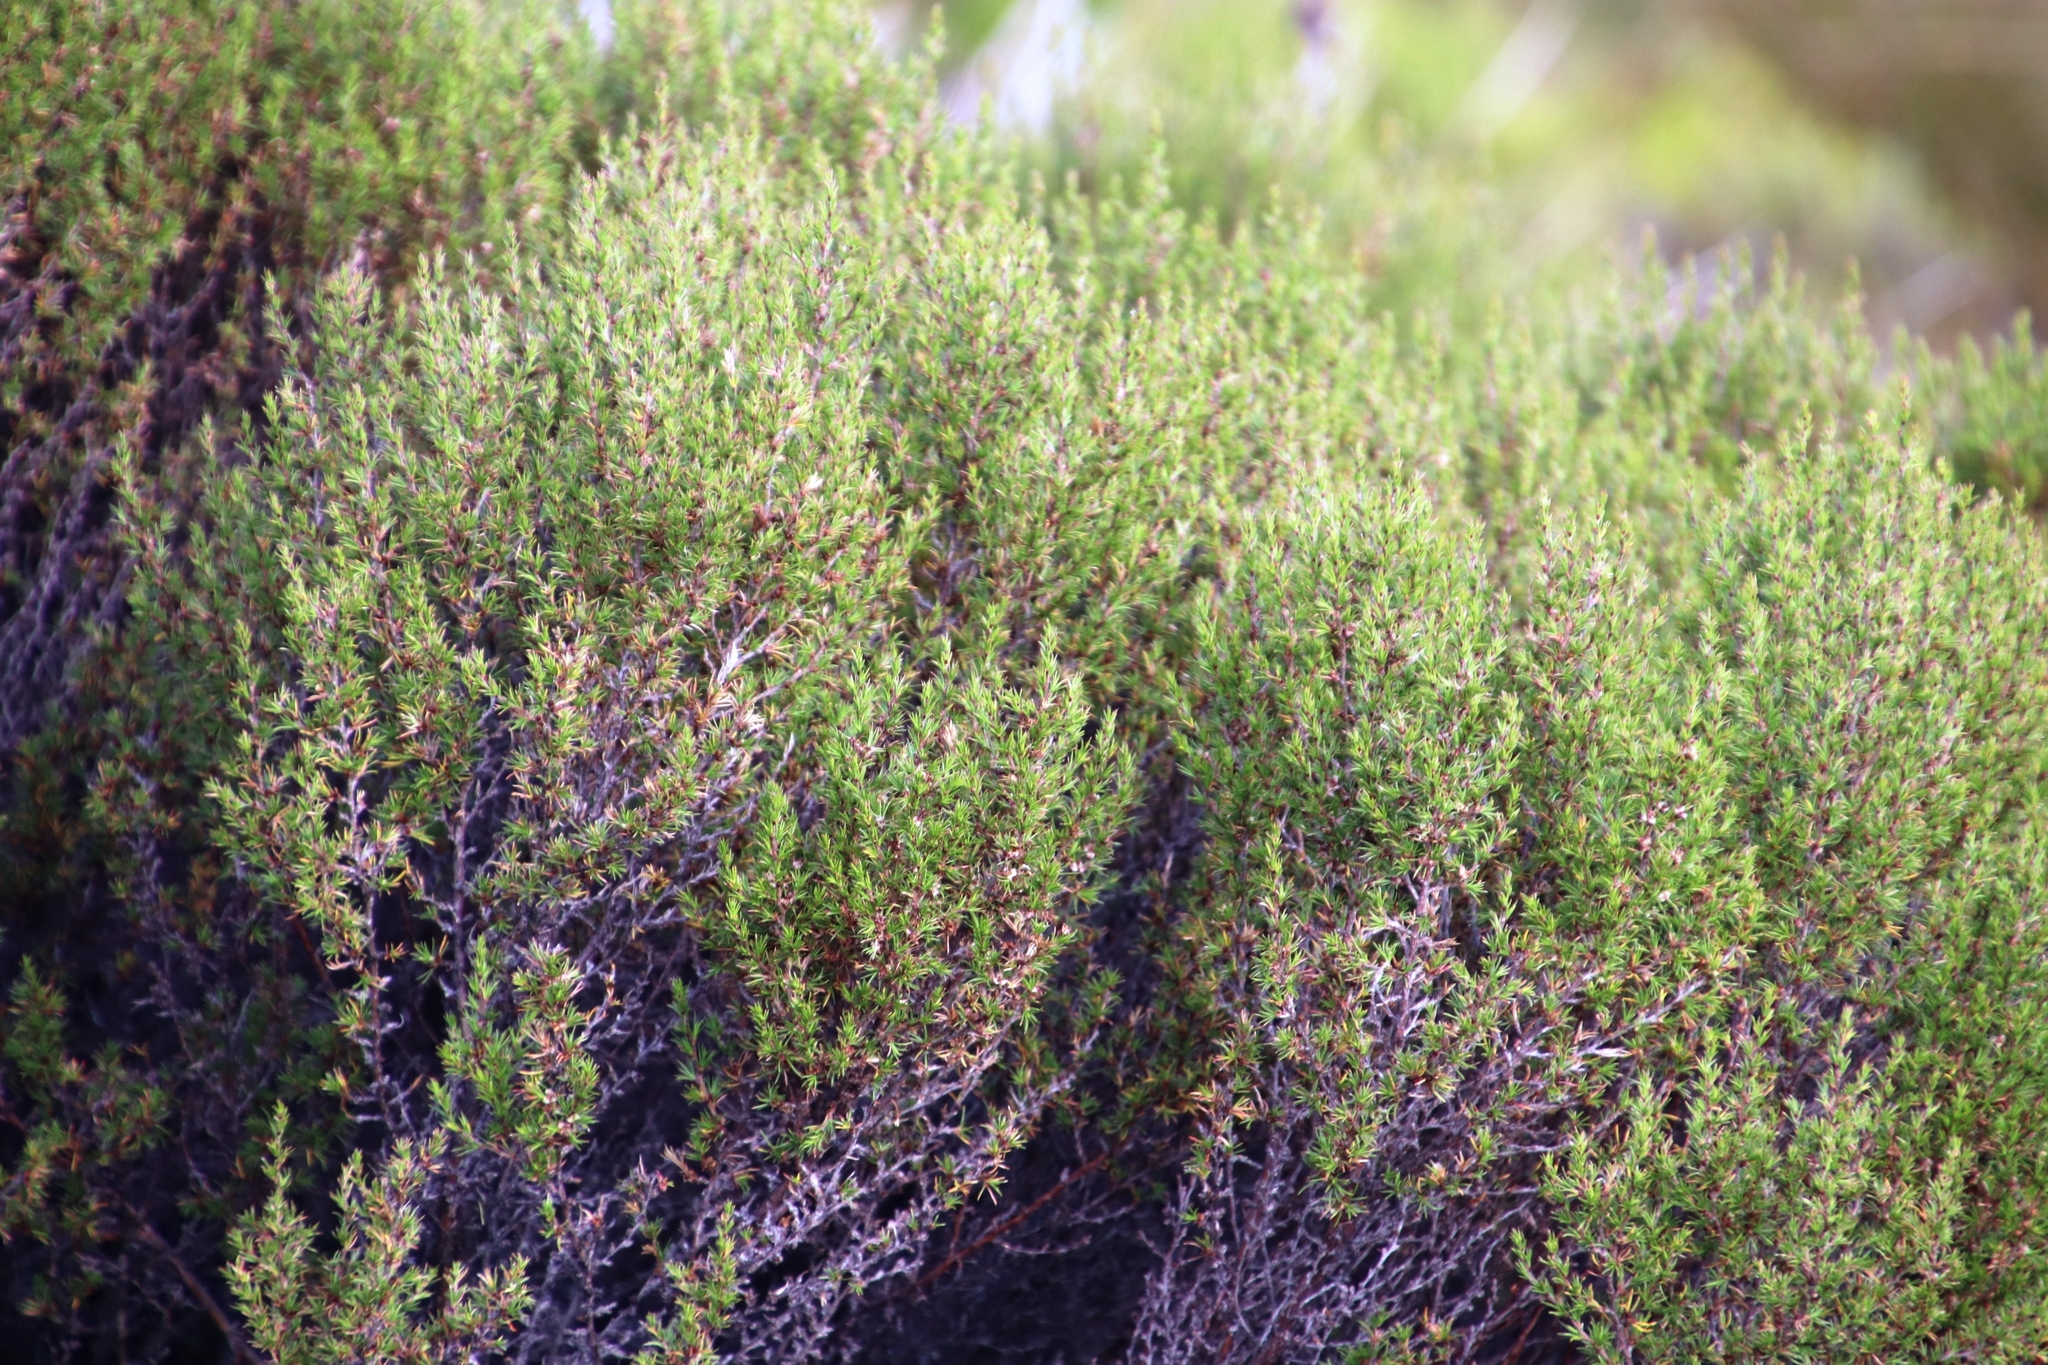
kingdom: Plantae
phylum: Tracheophyta
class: Magnoliopsida
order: Rosales
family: Rosaceae
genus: Cliffortia
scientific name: Cliffortia atrata
